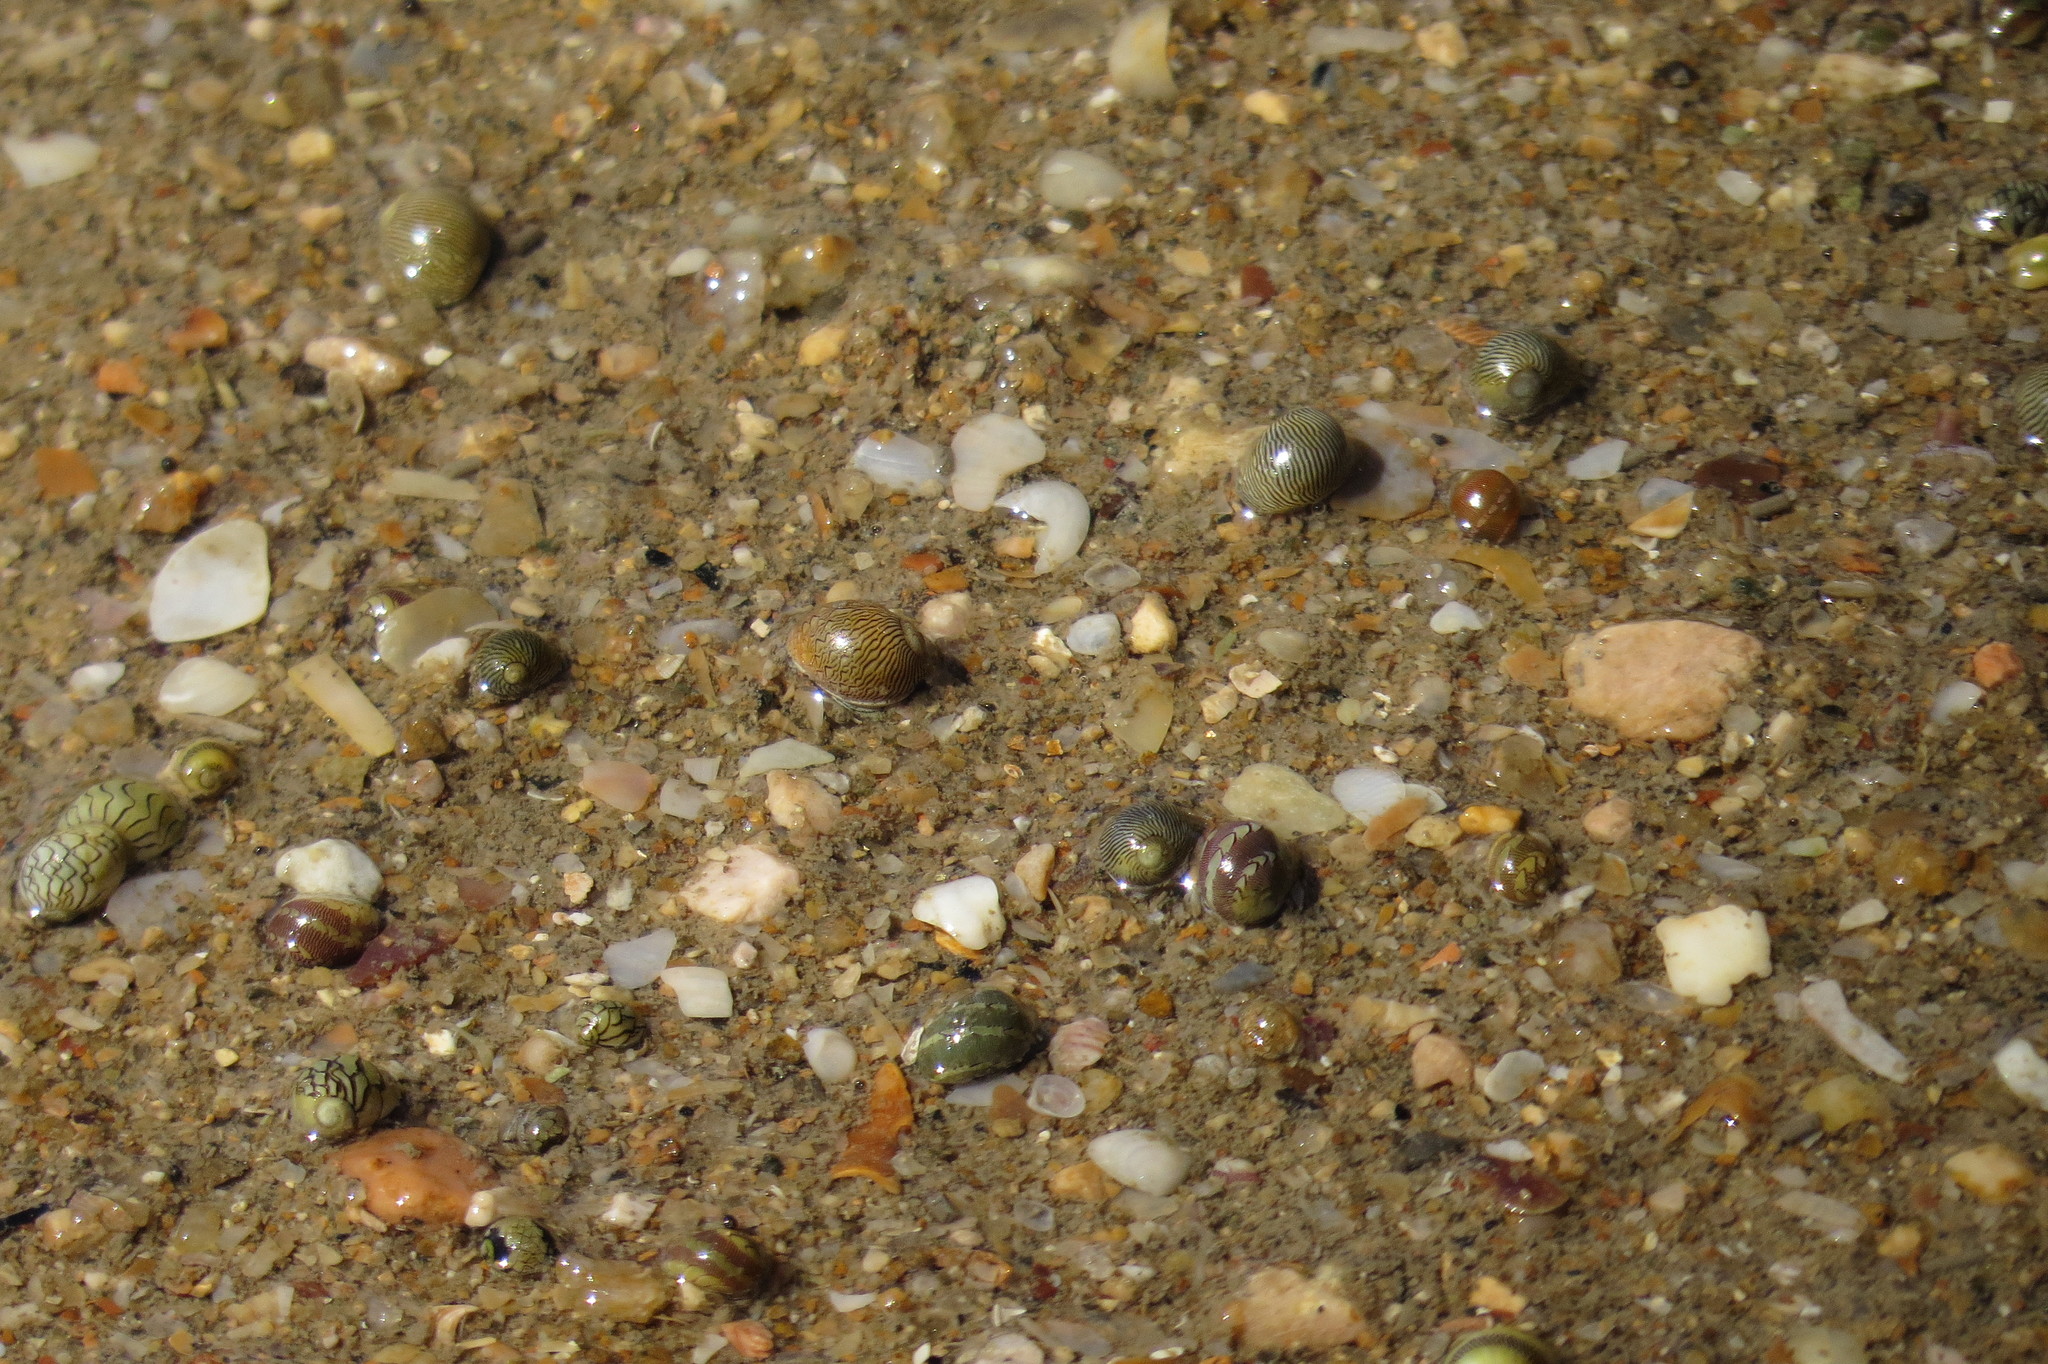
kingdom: Animalia
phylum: Mollusca
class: Gastropoda
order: Cycloneritida
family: Neritidae
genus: Clithon
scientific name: Clithon oualaniense
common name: Dubious nerite
